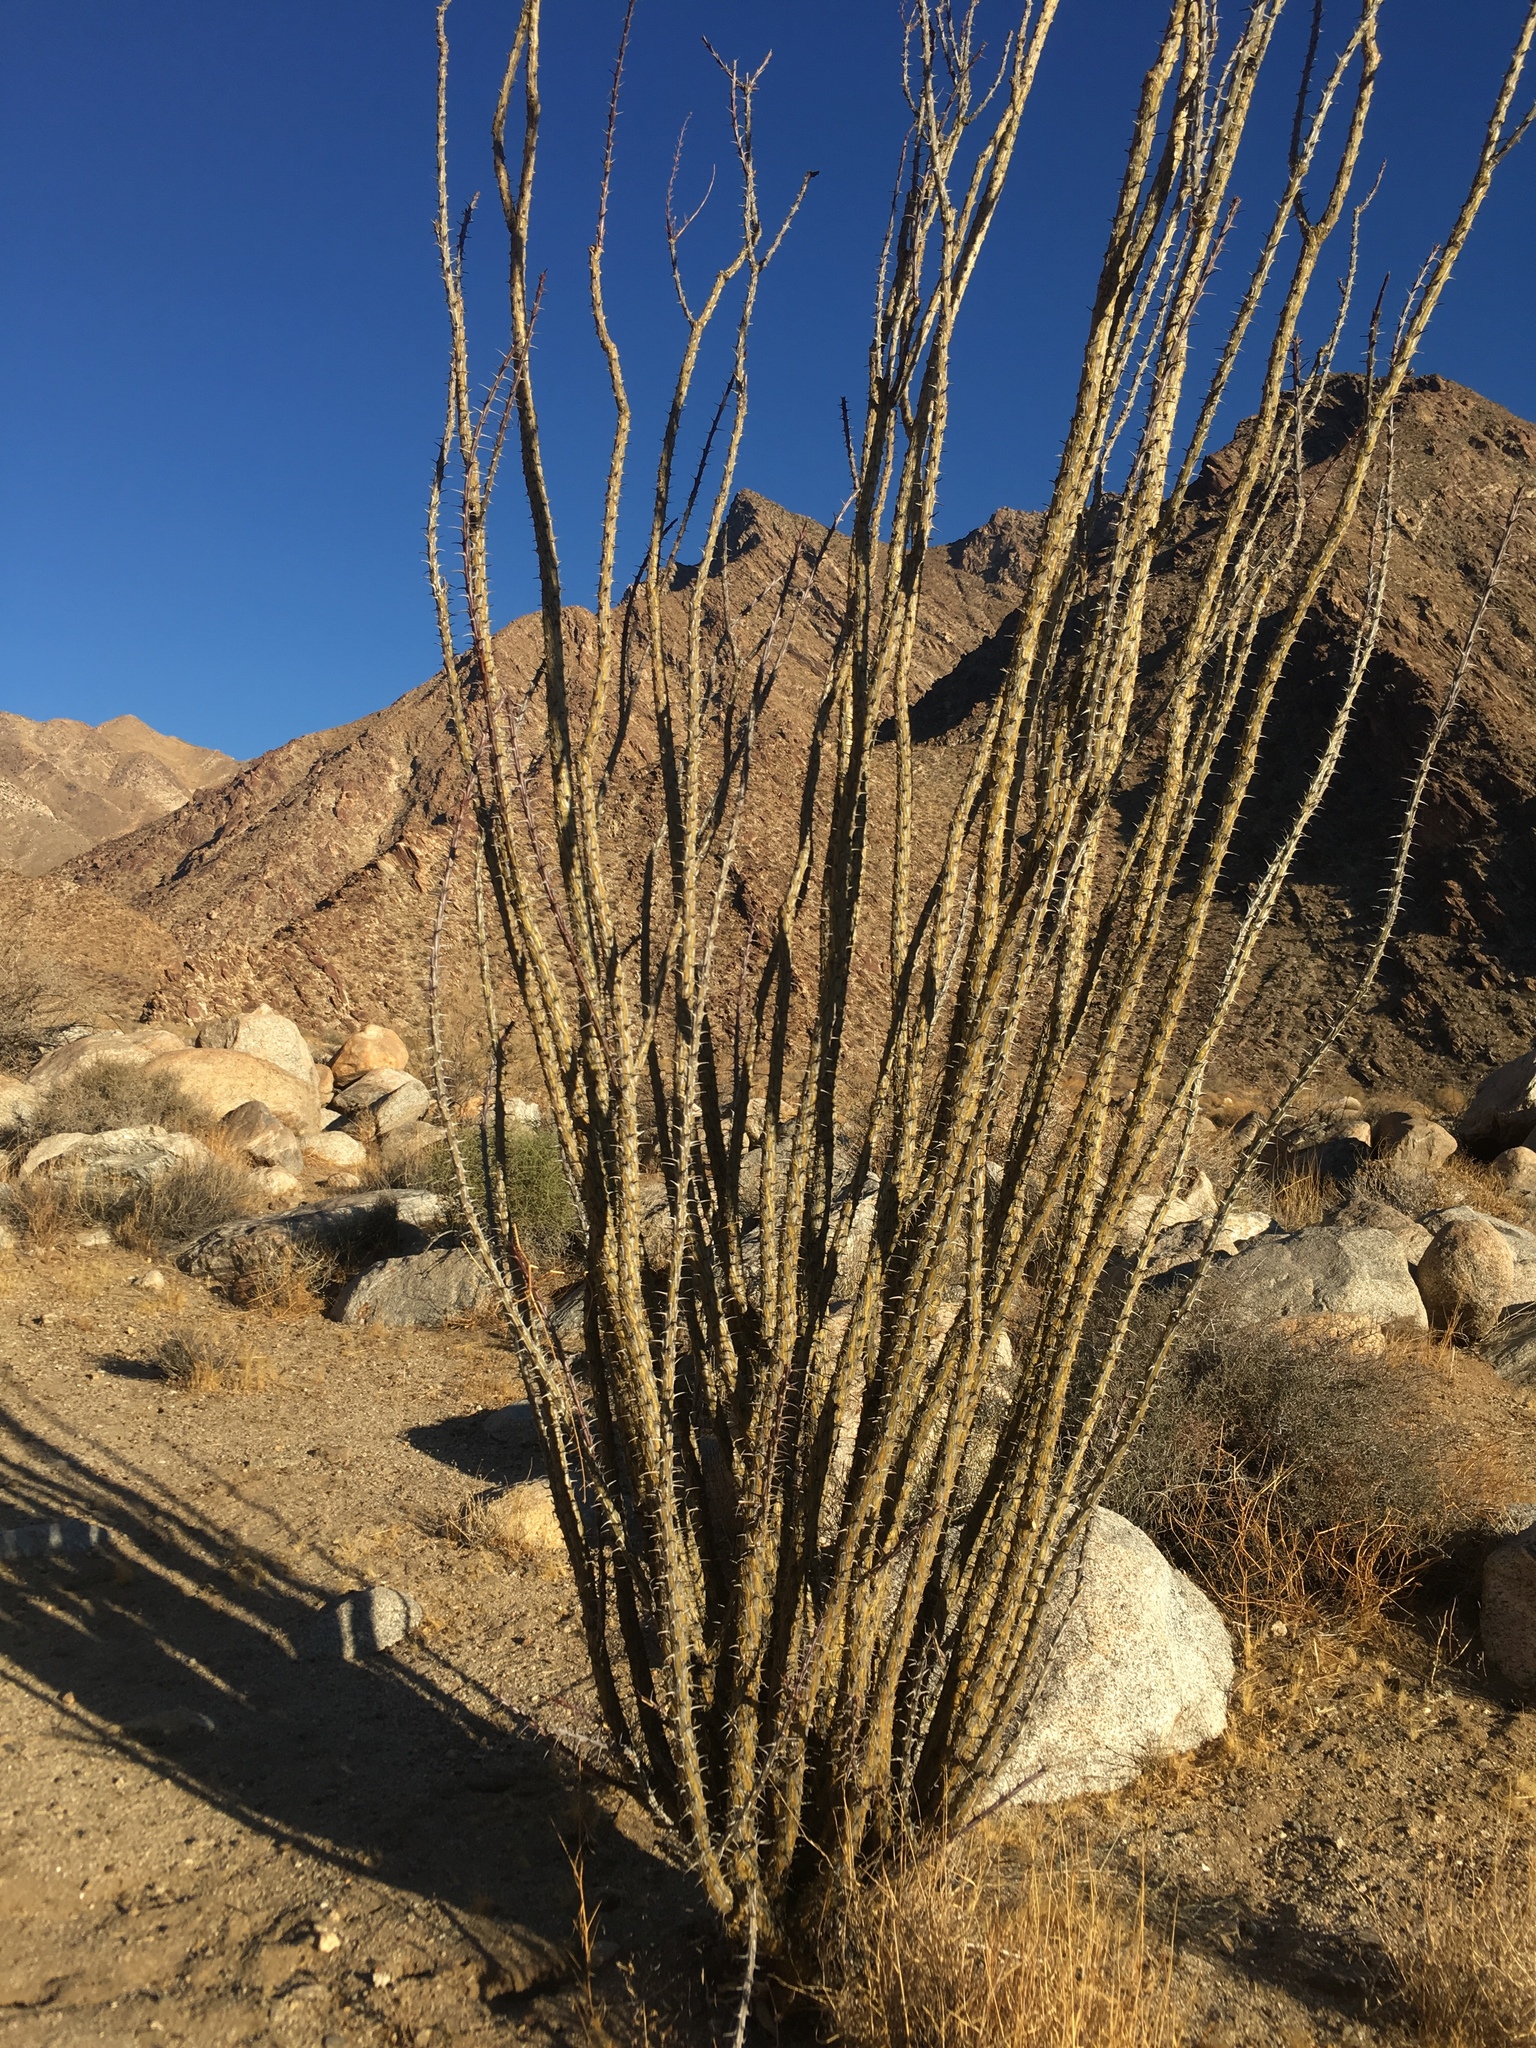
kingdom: Plantae
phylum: Tracheophyta
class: Magnoliopsida
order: Ericales
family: Fouquieriaceae
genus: Fouquieria
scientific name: Fouquieria splendens
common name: Vine-cactus
